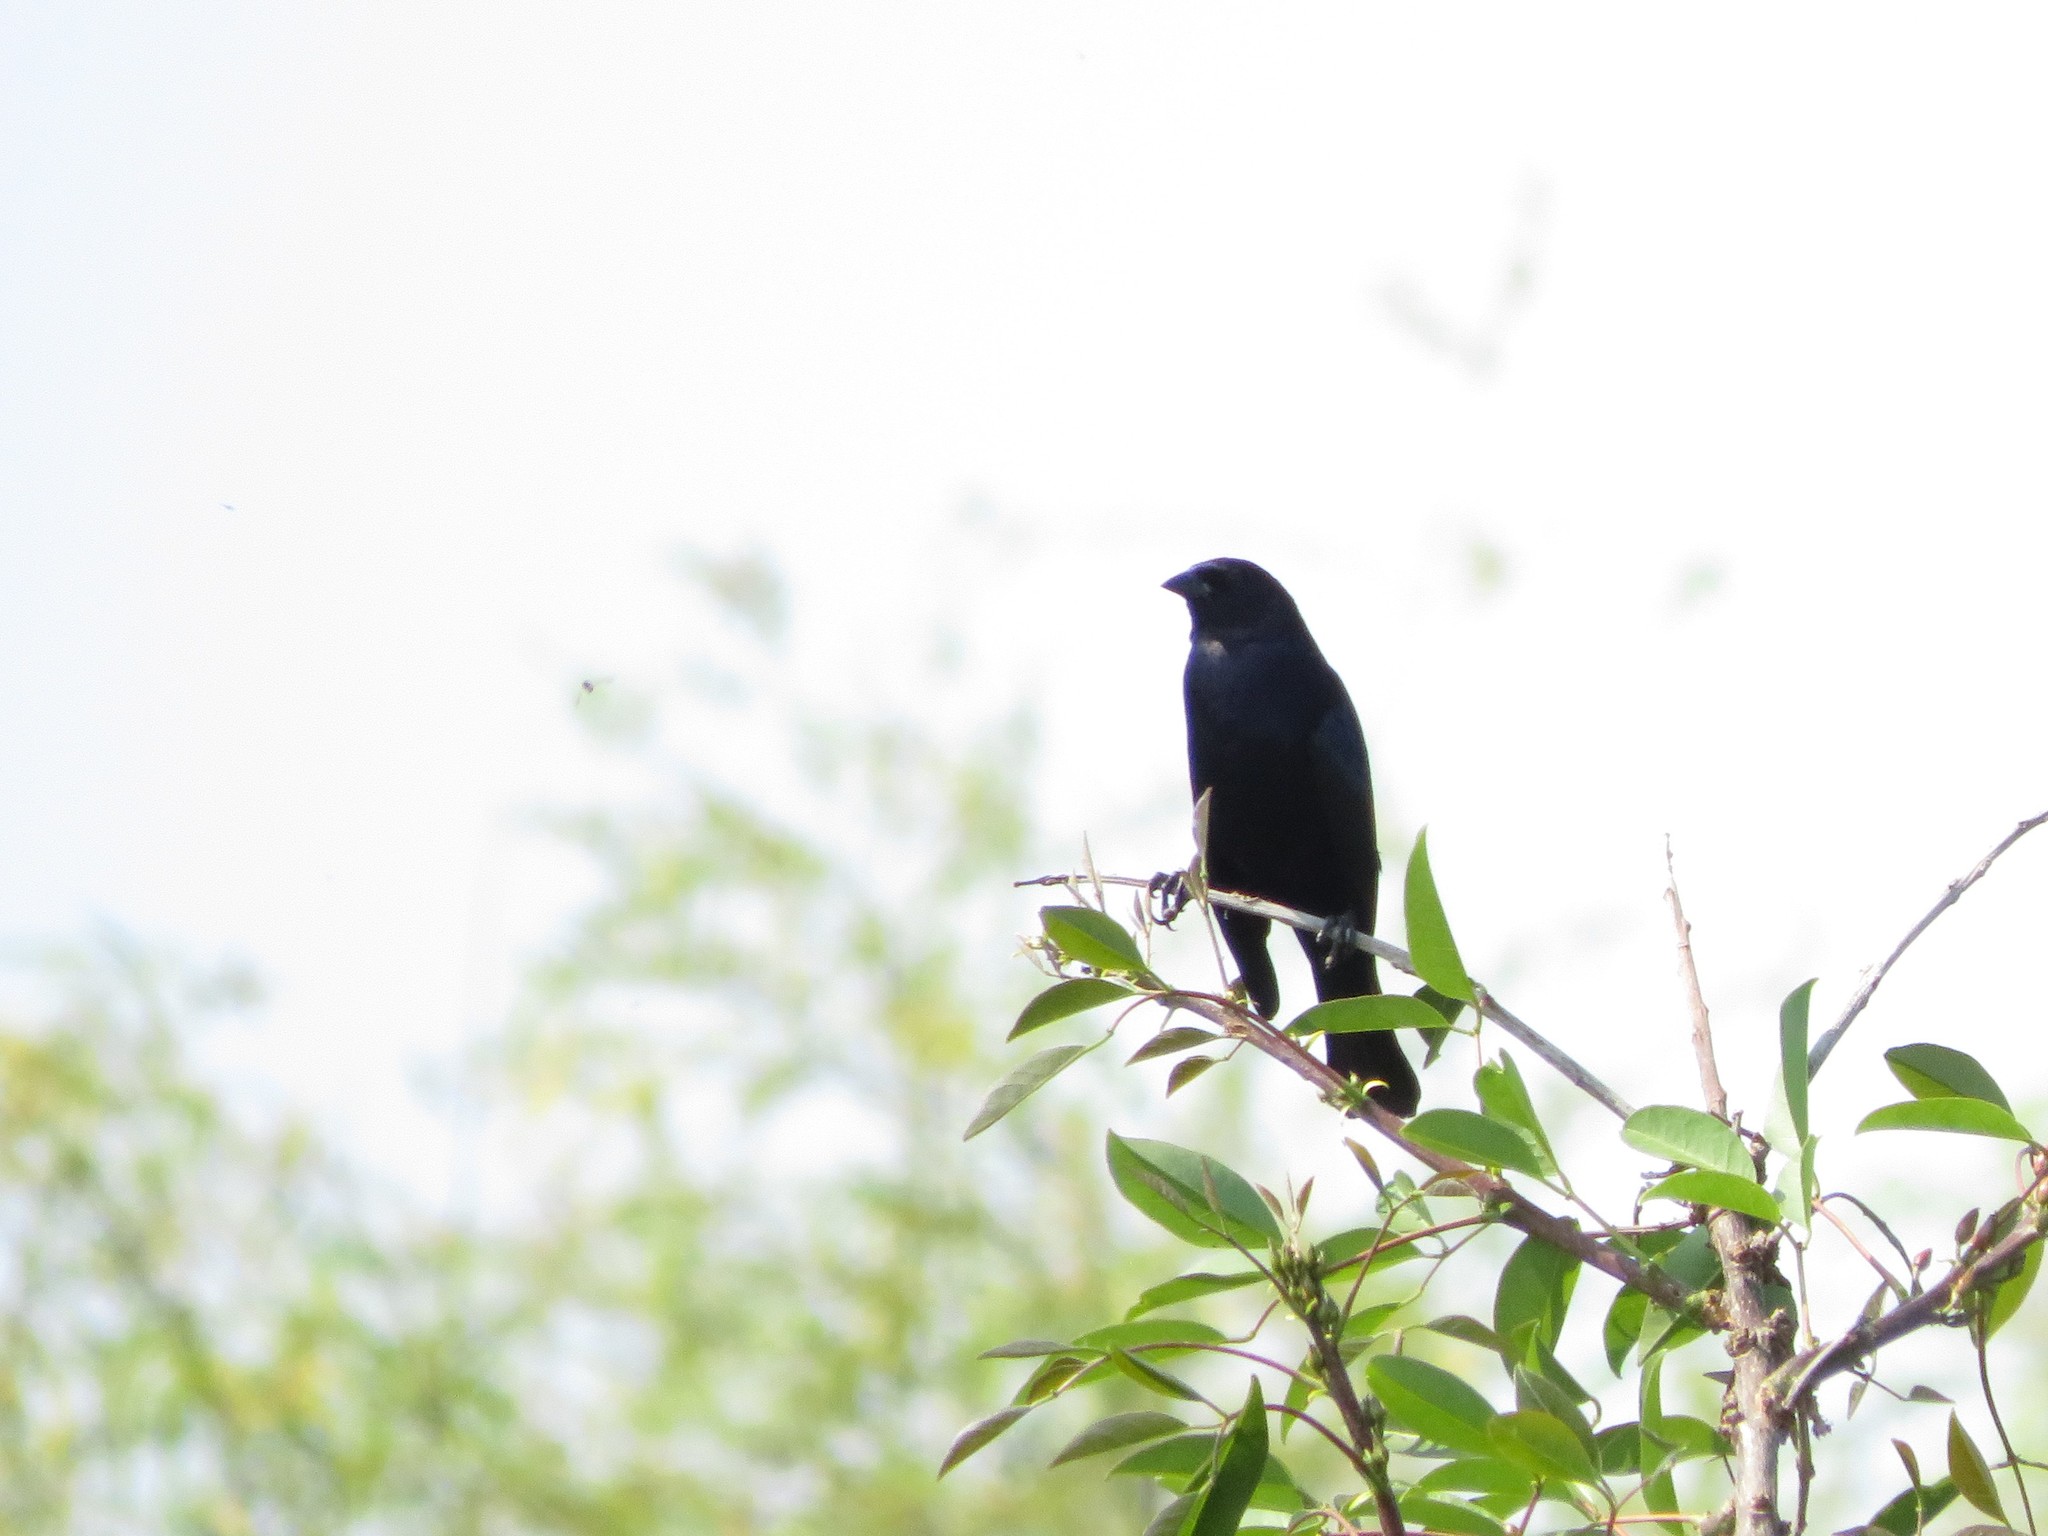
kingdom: Animalia
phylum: Chordata
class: Aves
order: Passeriformes
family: Icteridae
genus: Molothrus
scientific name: Molothrus bonariensis
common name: Shiny cowbird
